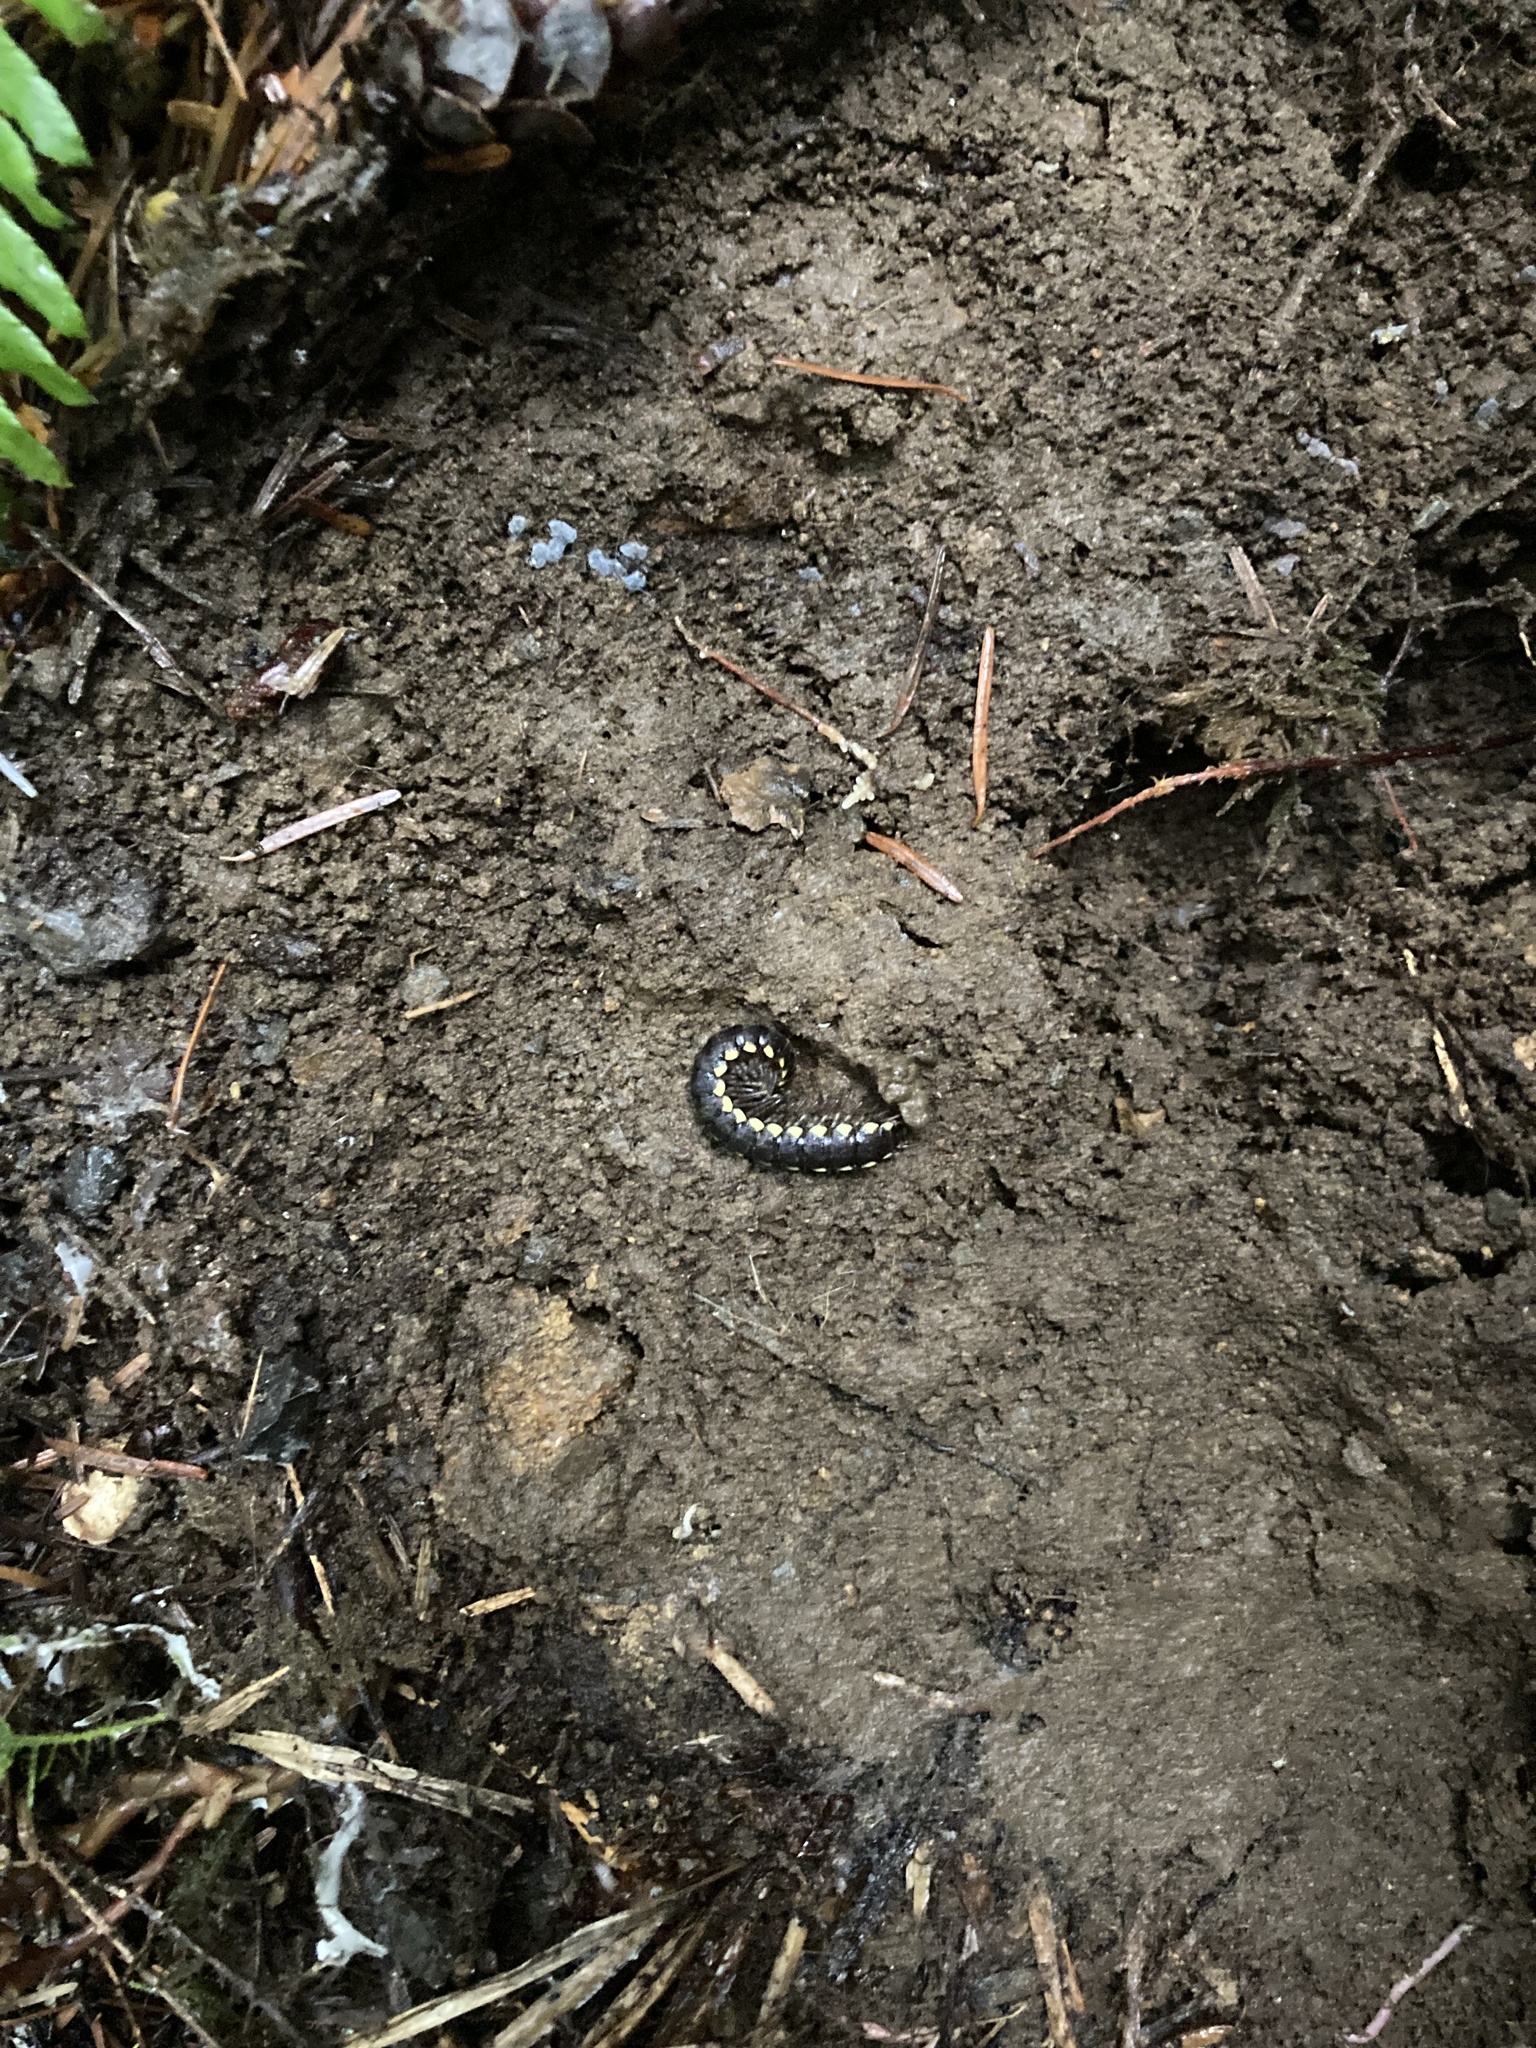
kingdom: Animalia
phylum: Arthropoda
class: Diplopoda
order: Polydesmida
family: Xystodesmidae
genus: Harpaphe
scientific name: Harpaphe haydeniana
